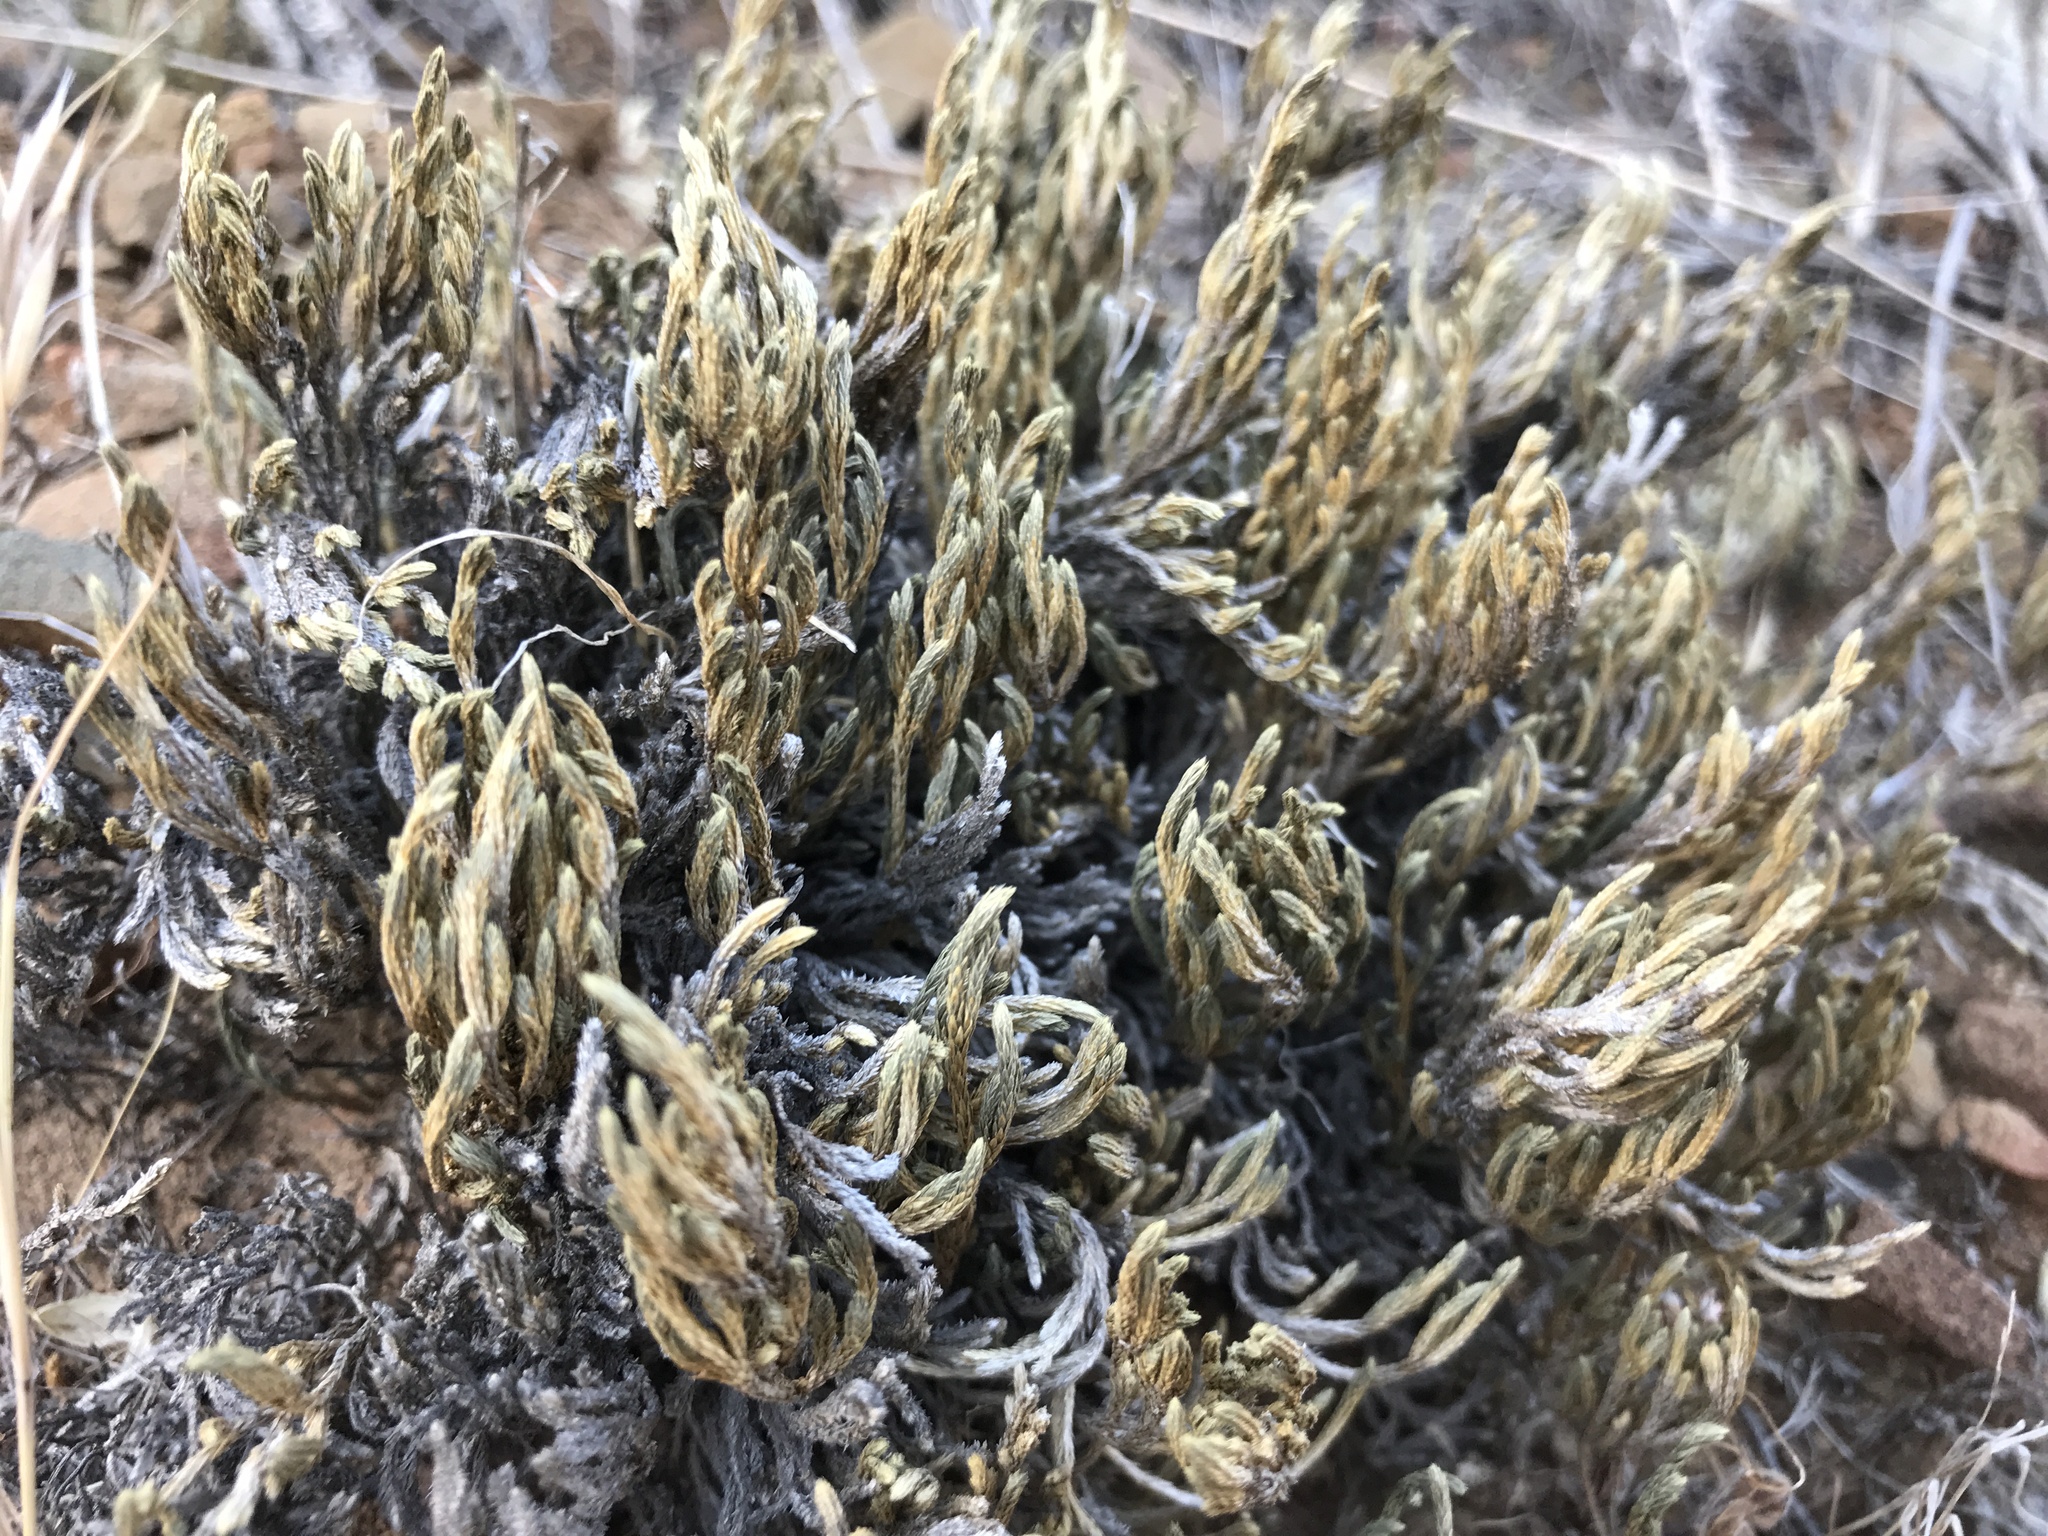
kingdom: Plantae
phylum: Tracheophyta
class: Lycopodiopsida
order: Selaginellales
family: Selaginellaceae
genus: Selaginella
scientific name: Selaginella bigelovii
